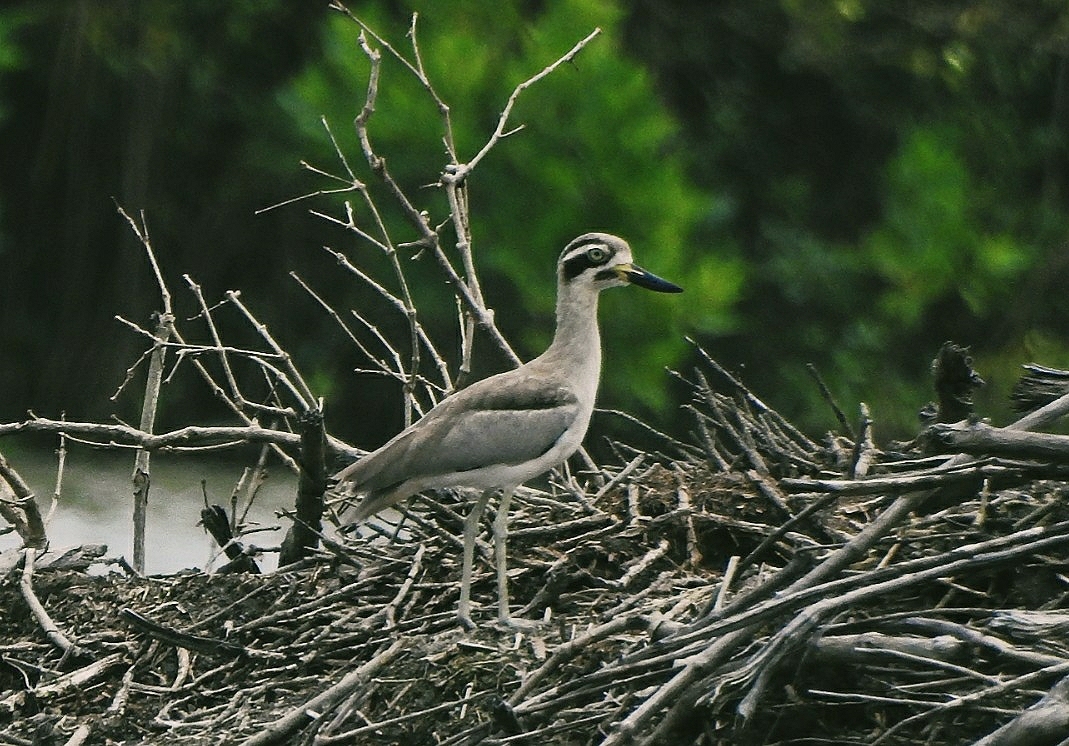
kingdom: Animalia
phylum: Chordata
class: Aves
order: Charadriiformes
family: Burhinidae
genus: Esacus
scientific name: Esacus recurvirostris
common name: Great stone-curlew
